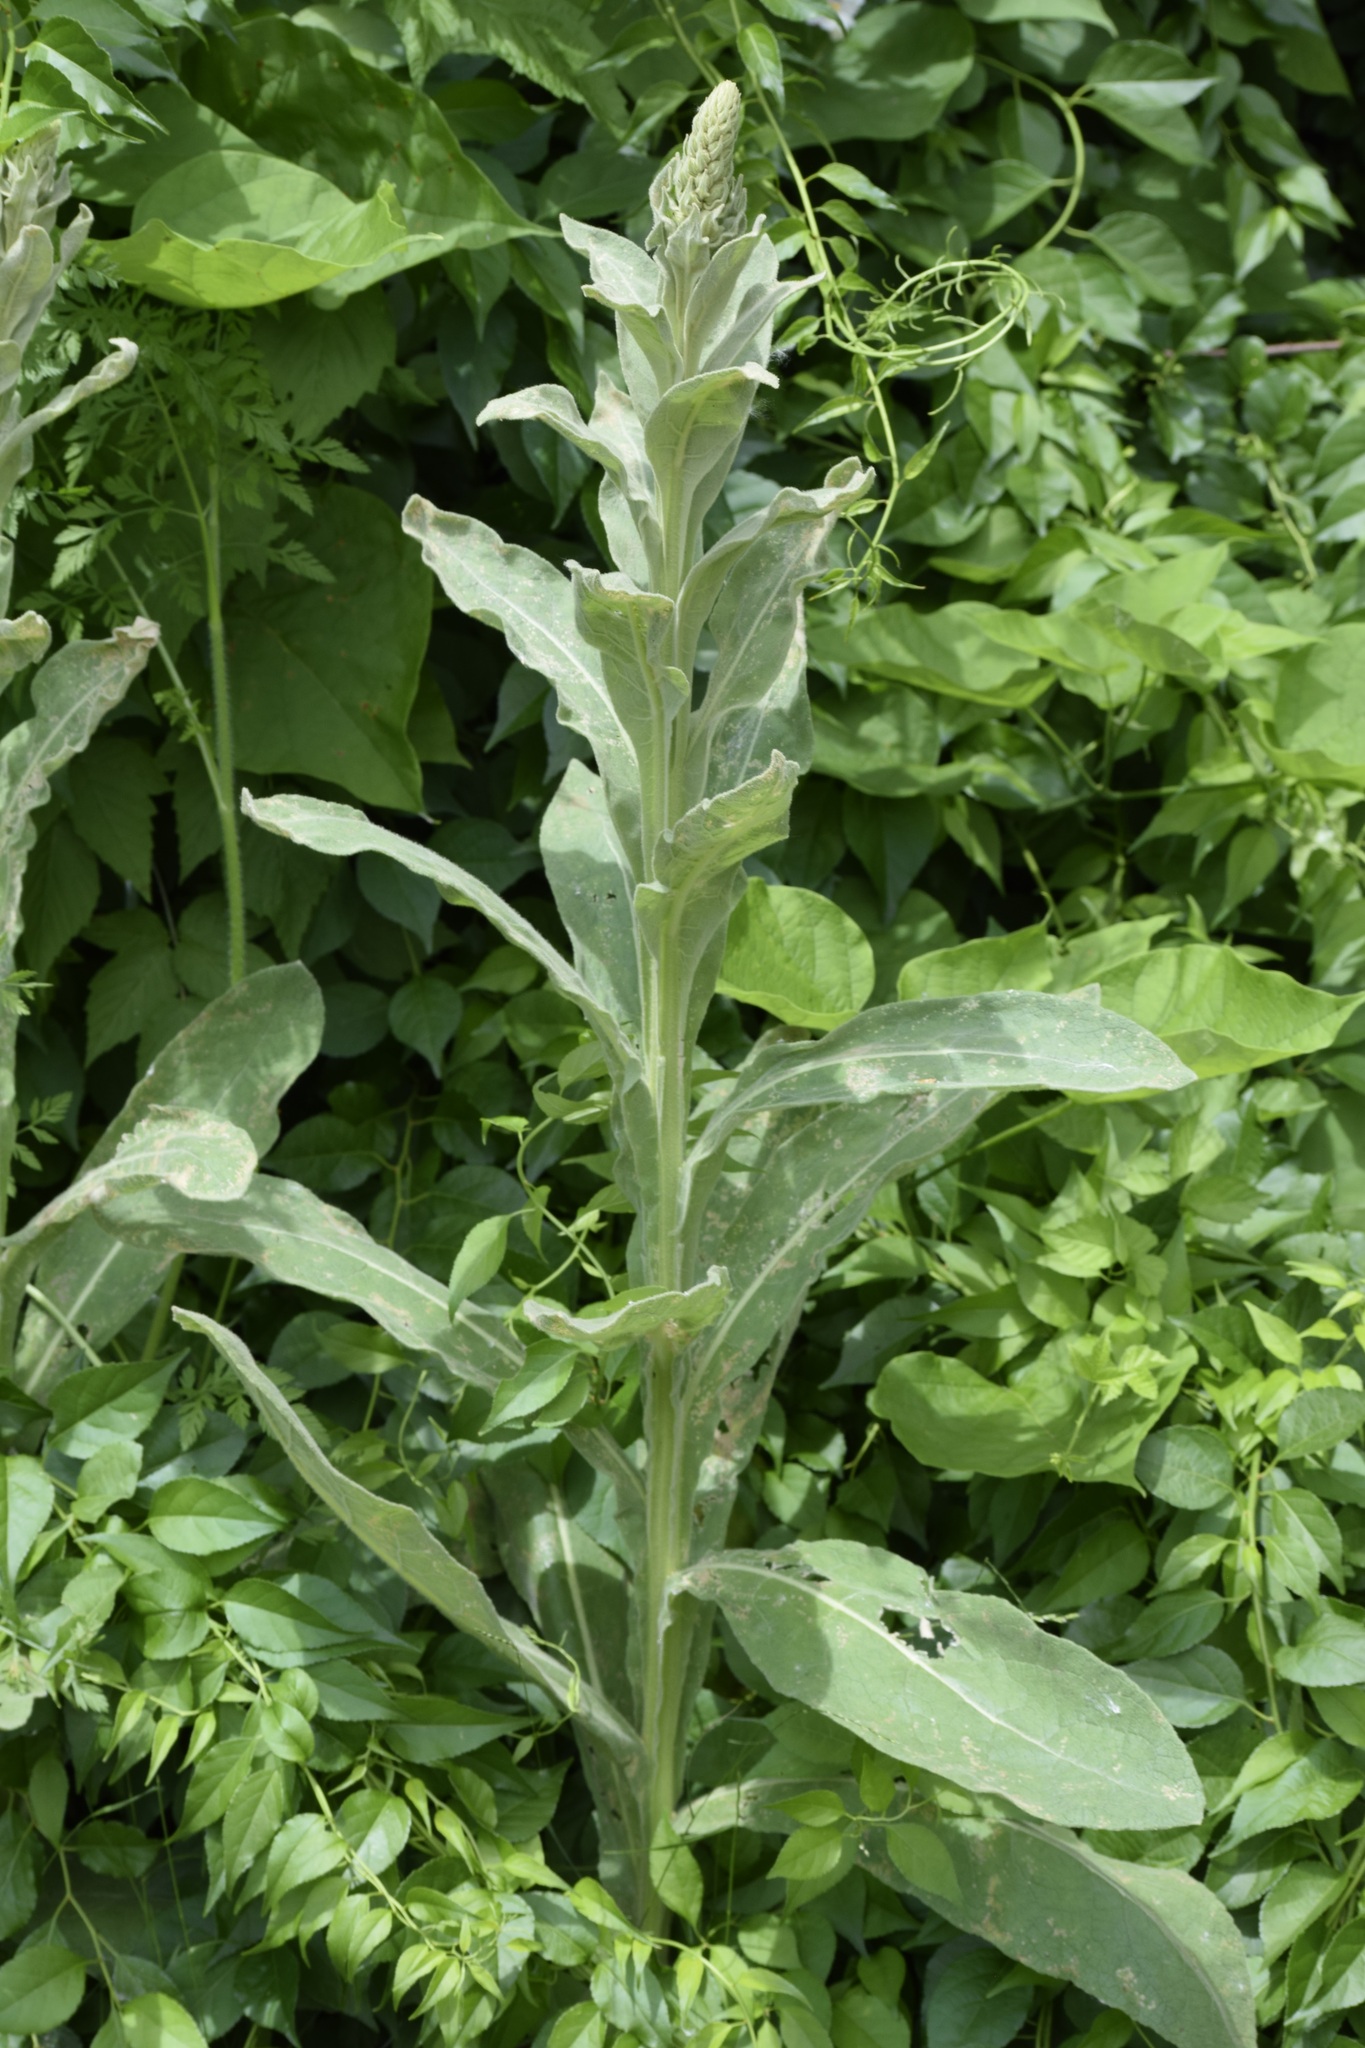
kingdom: Plantae
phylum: Tracheophyta
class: Magnoliopsida
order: Lamiales
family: Scrophulariaceae
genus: Verbascum
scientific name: Verbascum thapsus
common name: Common mullein
